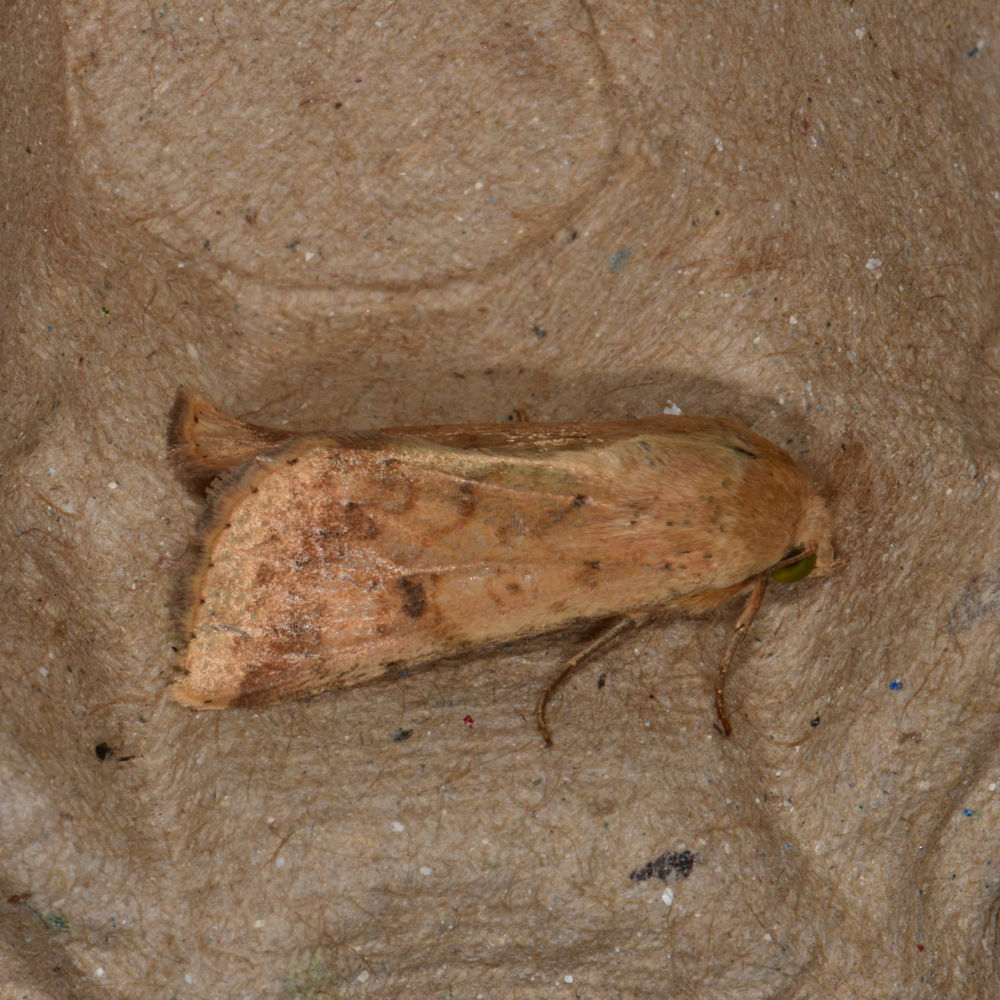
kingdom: Animalia
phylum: Arthropoda
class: Insecta
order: Lepidoptera
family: Noctuidae
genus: Helicoverpa
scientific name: Helicoverpa zea
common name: Bollworm
